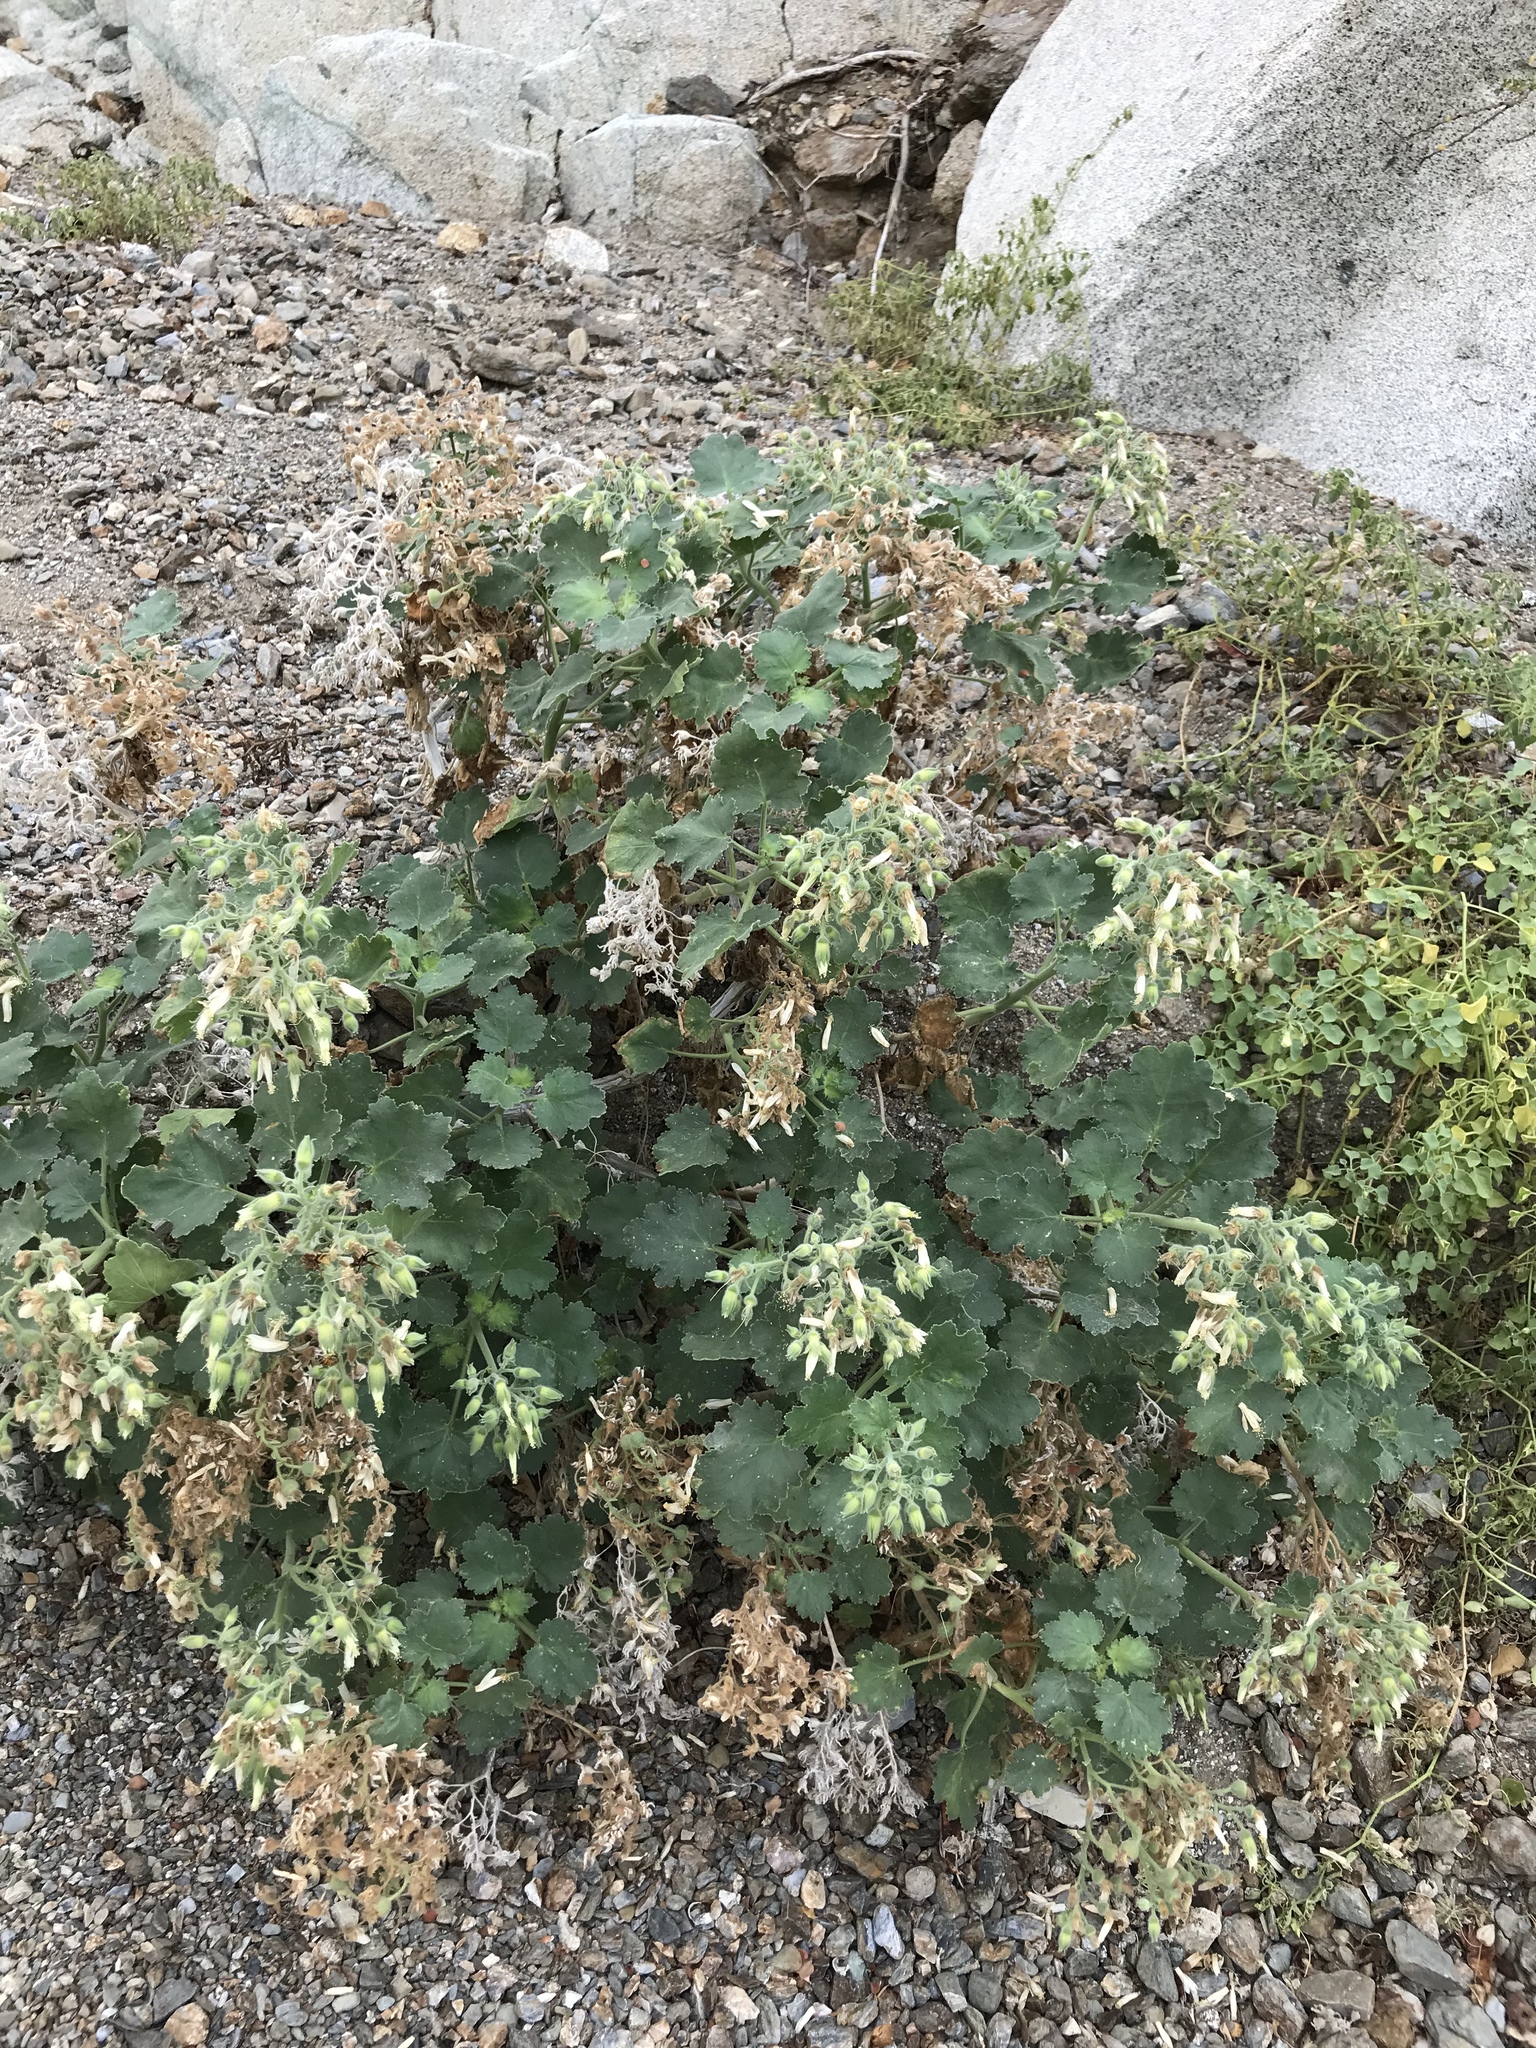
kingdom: Plantae
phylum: Tracheophyta
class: Magnoliopsida
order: Cornales
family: Loasaceae
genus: Eucnide
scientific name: Eucnide cordata
